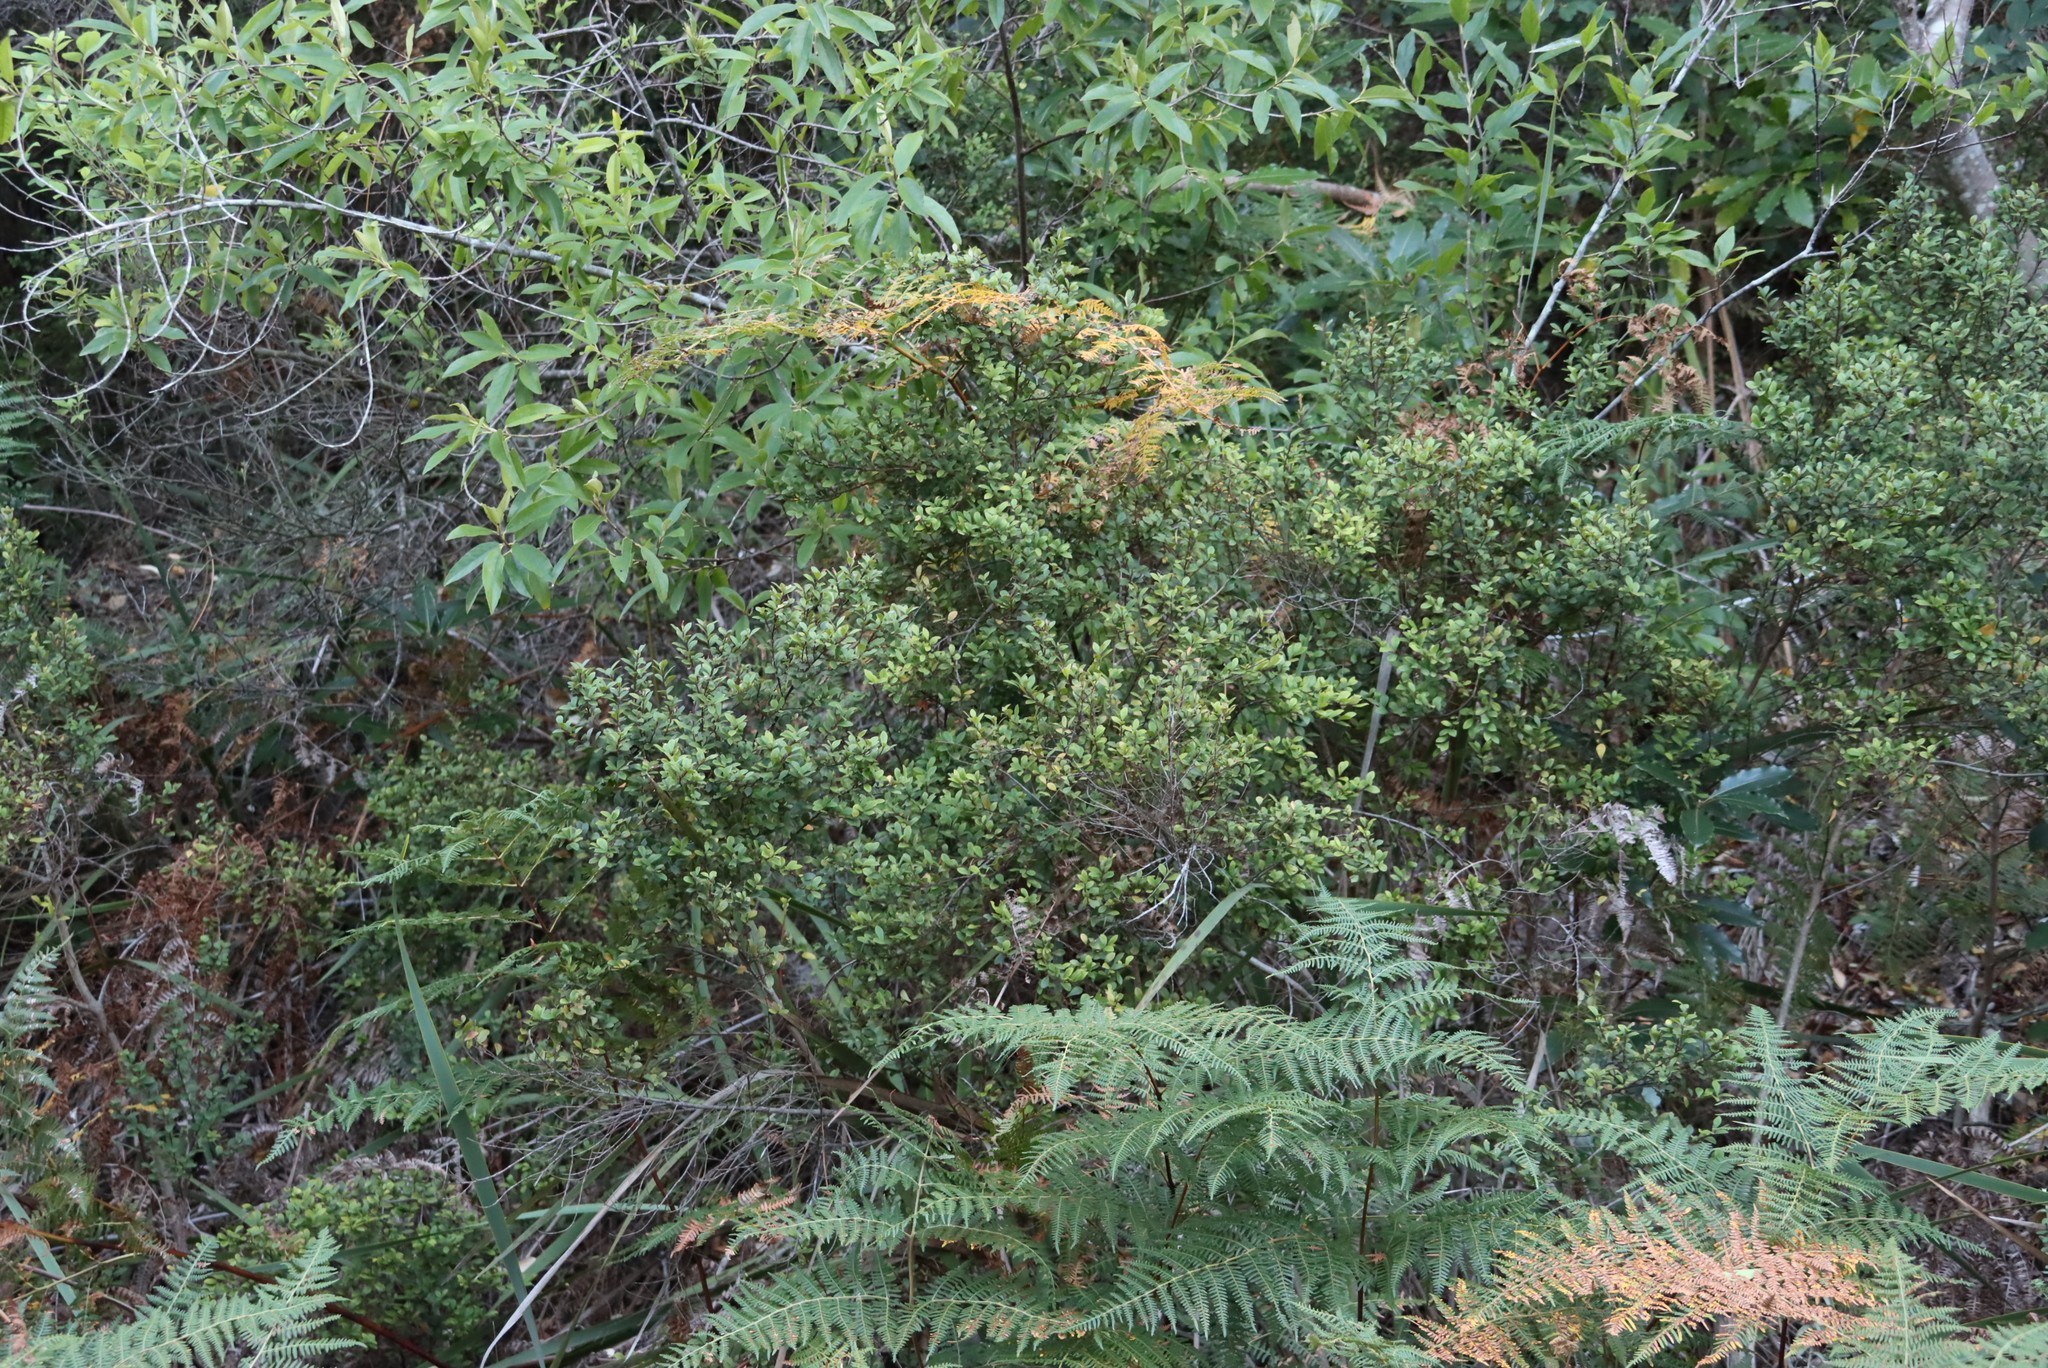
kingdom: Plantae
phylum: Tracheophyta
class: Magnoliopsida
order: Ericales
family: Primulaceae
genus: Myrsine
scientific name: Myrsine africana
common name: African-boxwood
